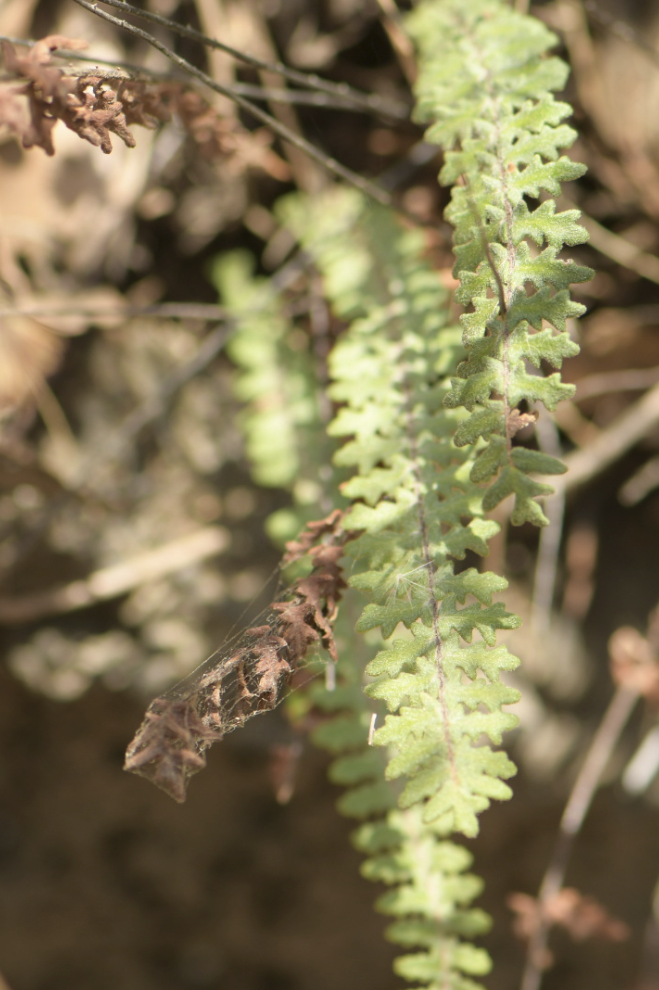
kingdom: Plantae
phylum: Tracheophyta
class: Polypodiopsida
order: Polypodiales
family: Pteridaceae
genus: Myriopteris
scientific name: Myriopteris aurea
